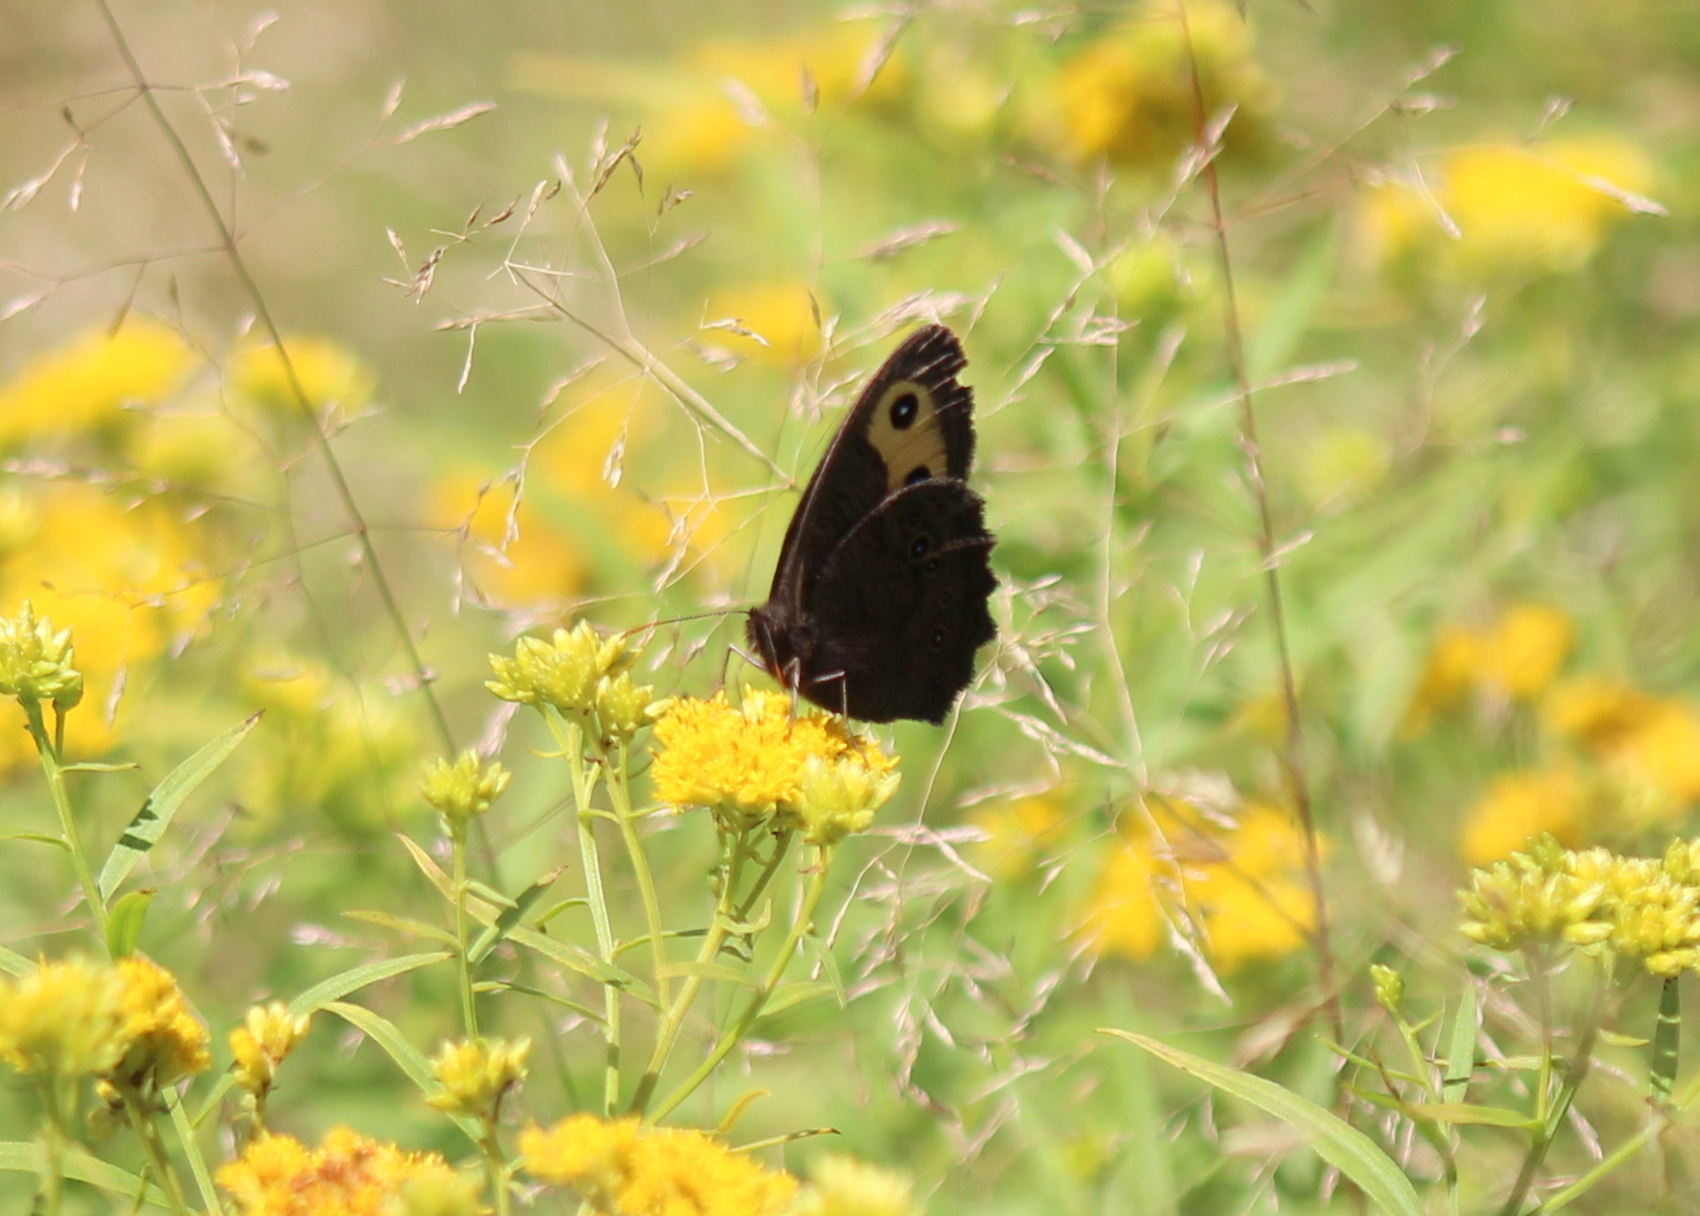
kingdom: Animalia
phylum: Arthropoda
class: Insecta
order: Lepidoptera
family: Nymphalidae
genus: Cercyonis
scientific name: Cercyonis pegala
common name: Common wood-nymph
